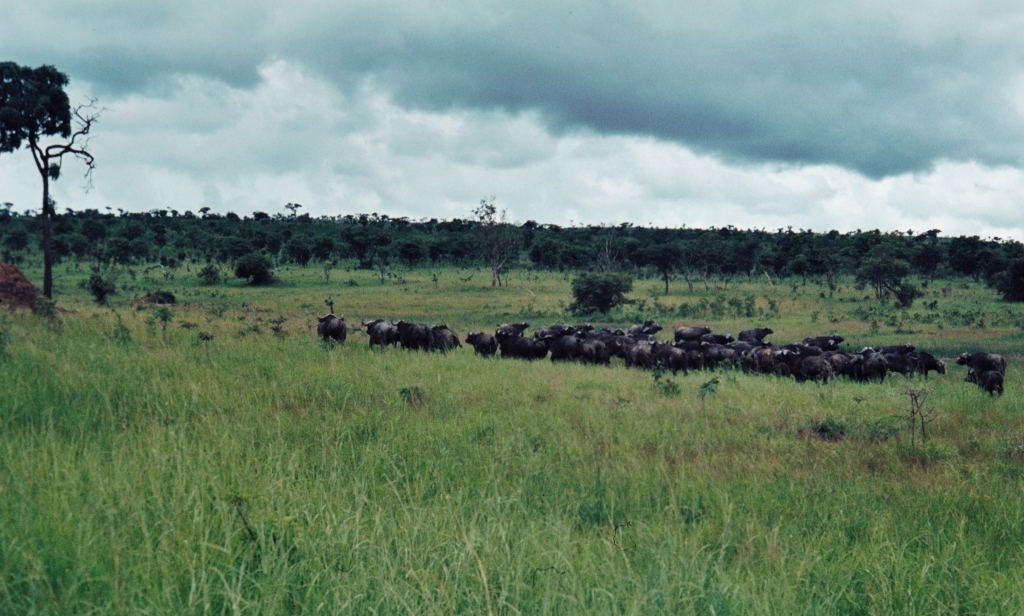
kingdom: Animalia
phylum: Chordata
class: Mammalia
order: Artiodactyla
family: Bovidae
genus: Syncerus
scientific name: Syncerus caffer
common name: African buffalo
